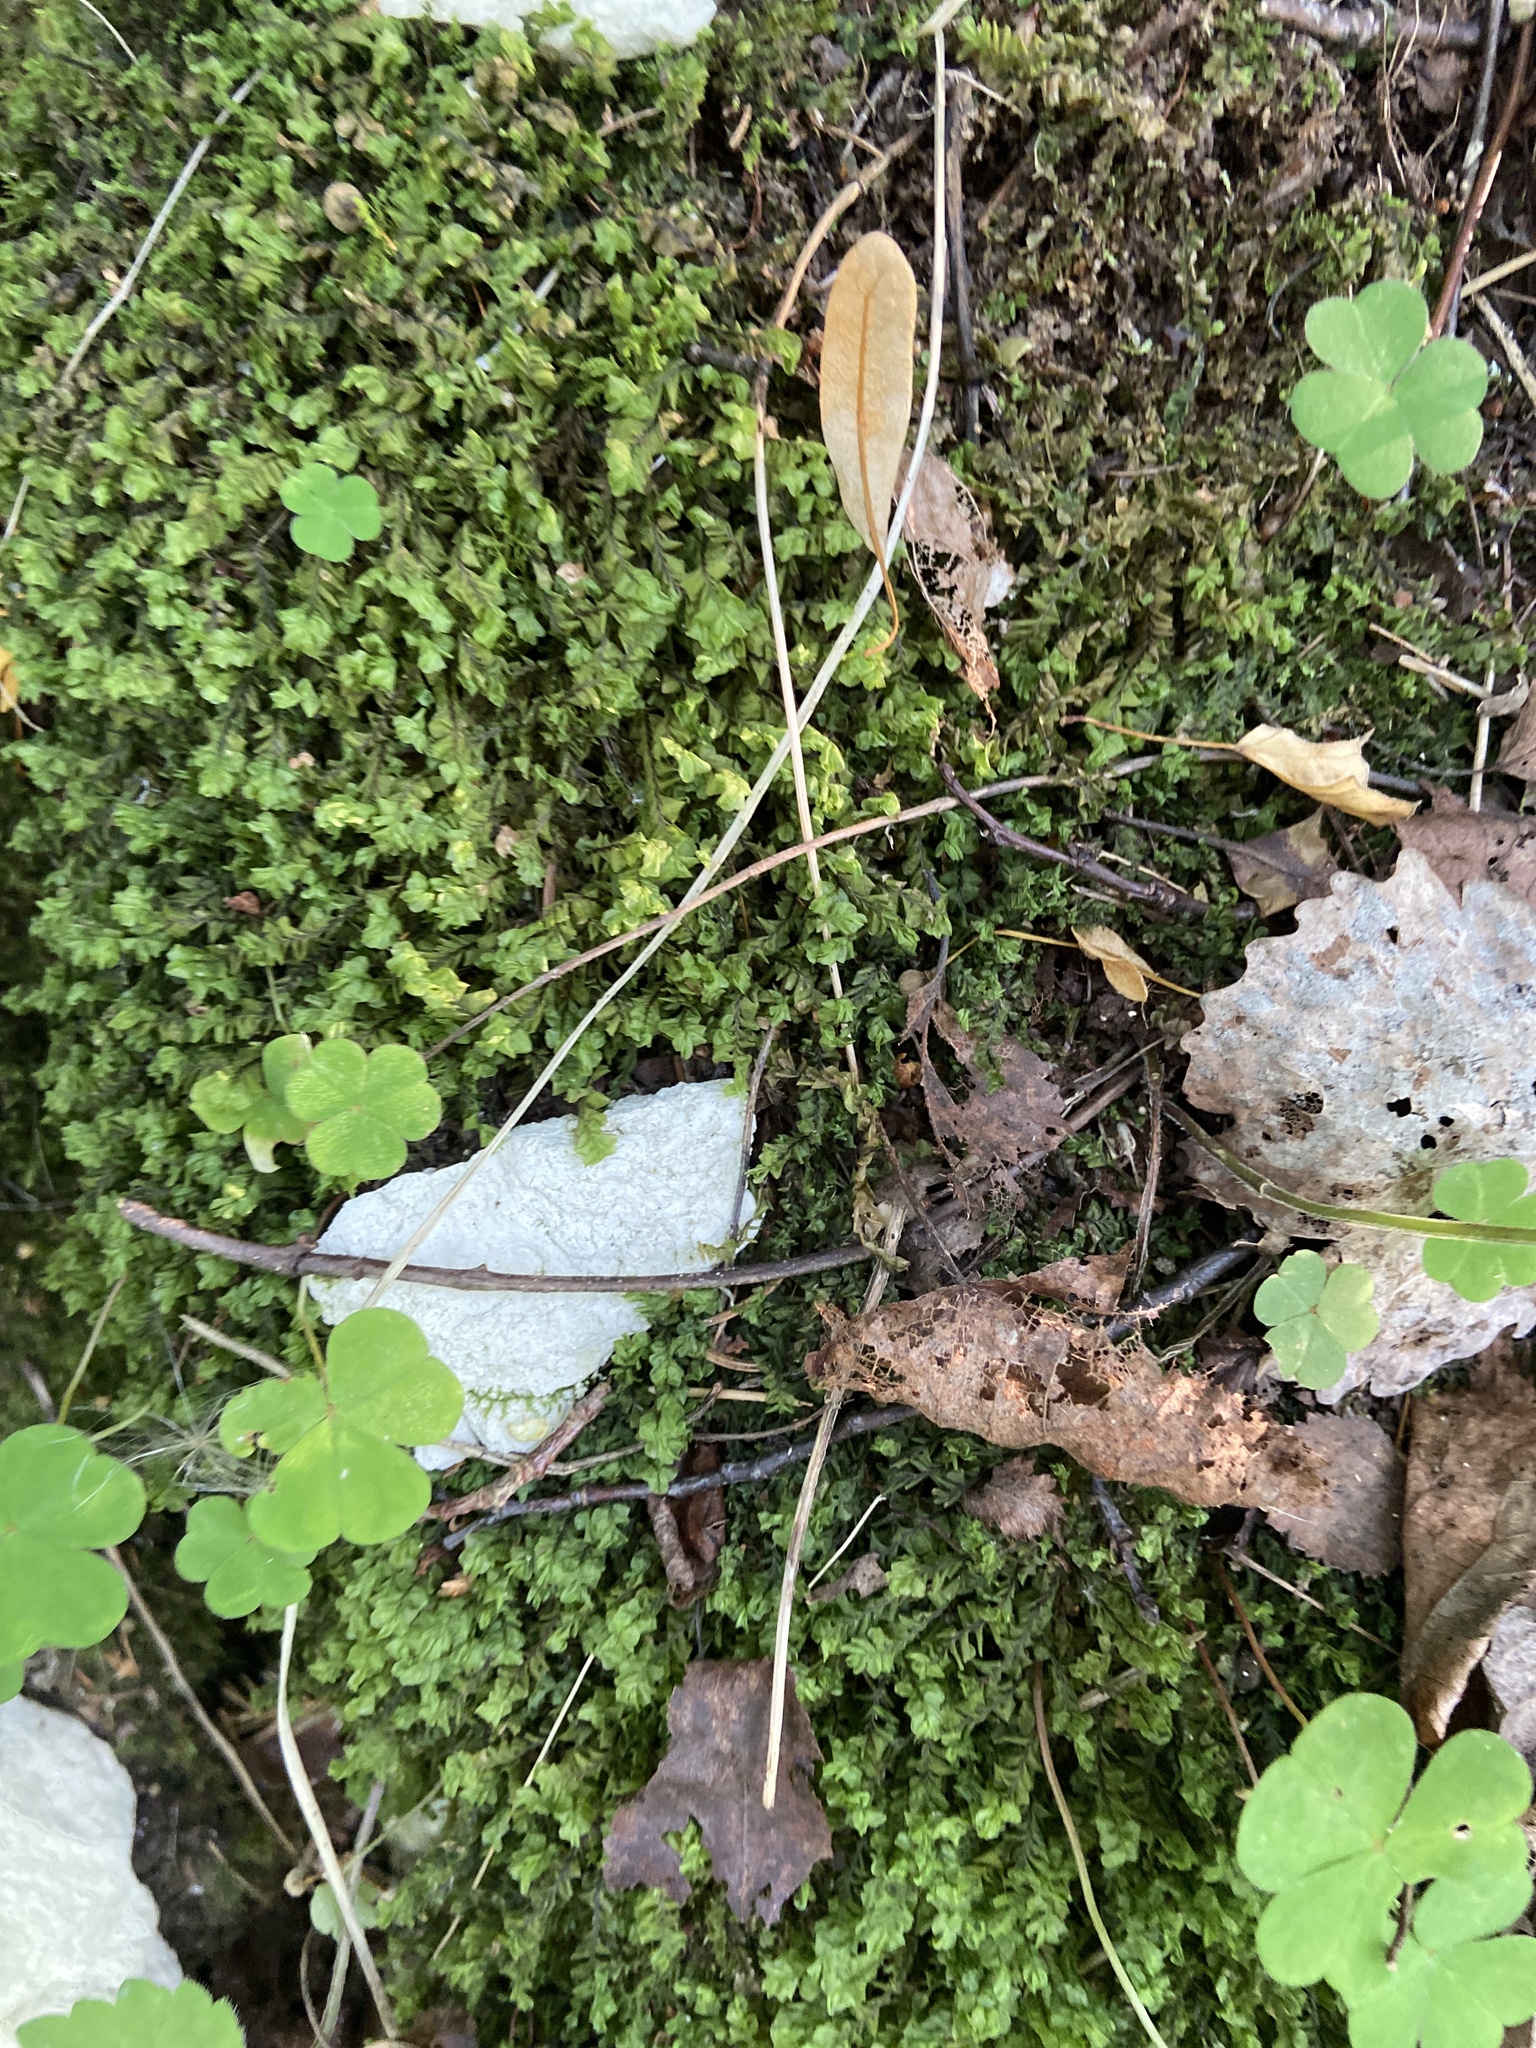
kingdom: Plantae
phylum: Marchantiophyta
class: Jungermanniopsida
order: Jungermanniales
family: Plagiochilaceae
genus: Plagiochila
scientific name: Plagiochila asplenioides
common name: Greater featherwort
